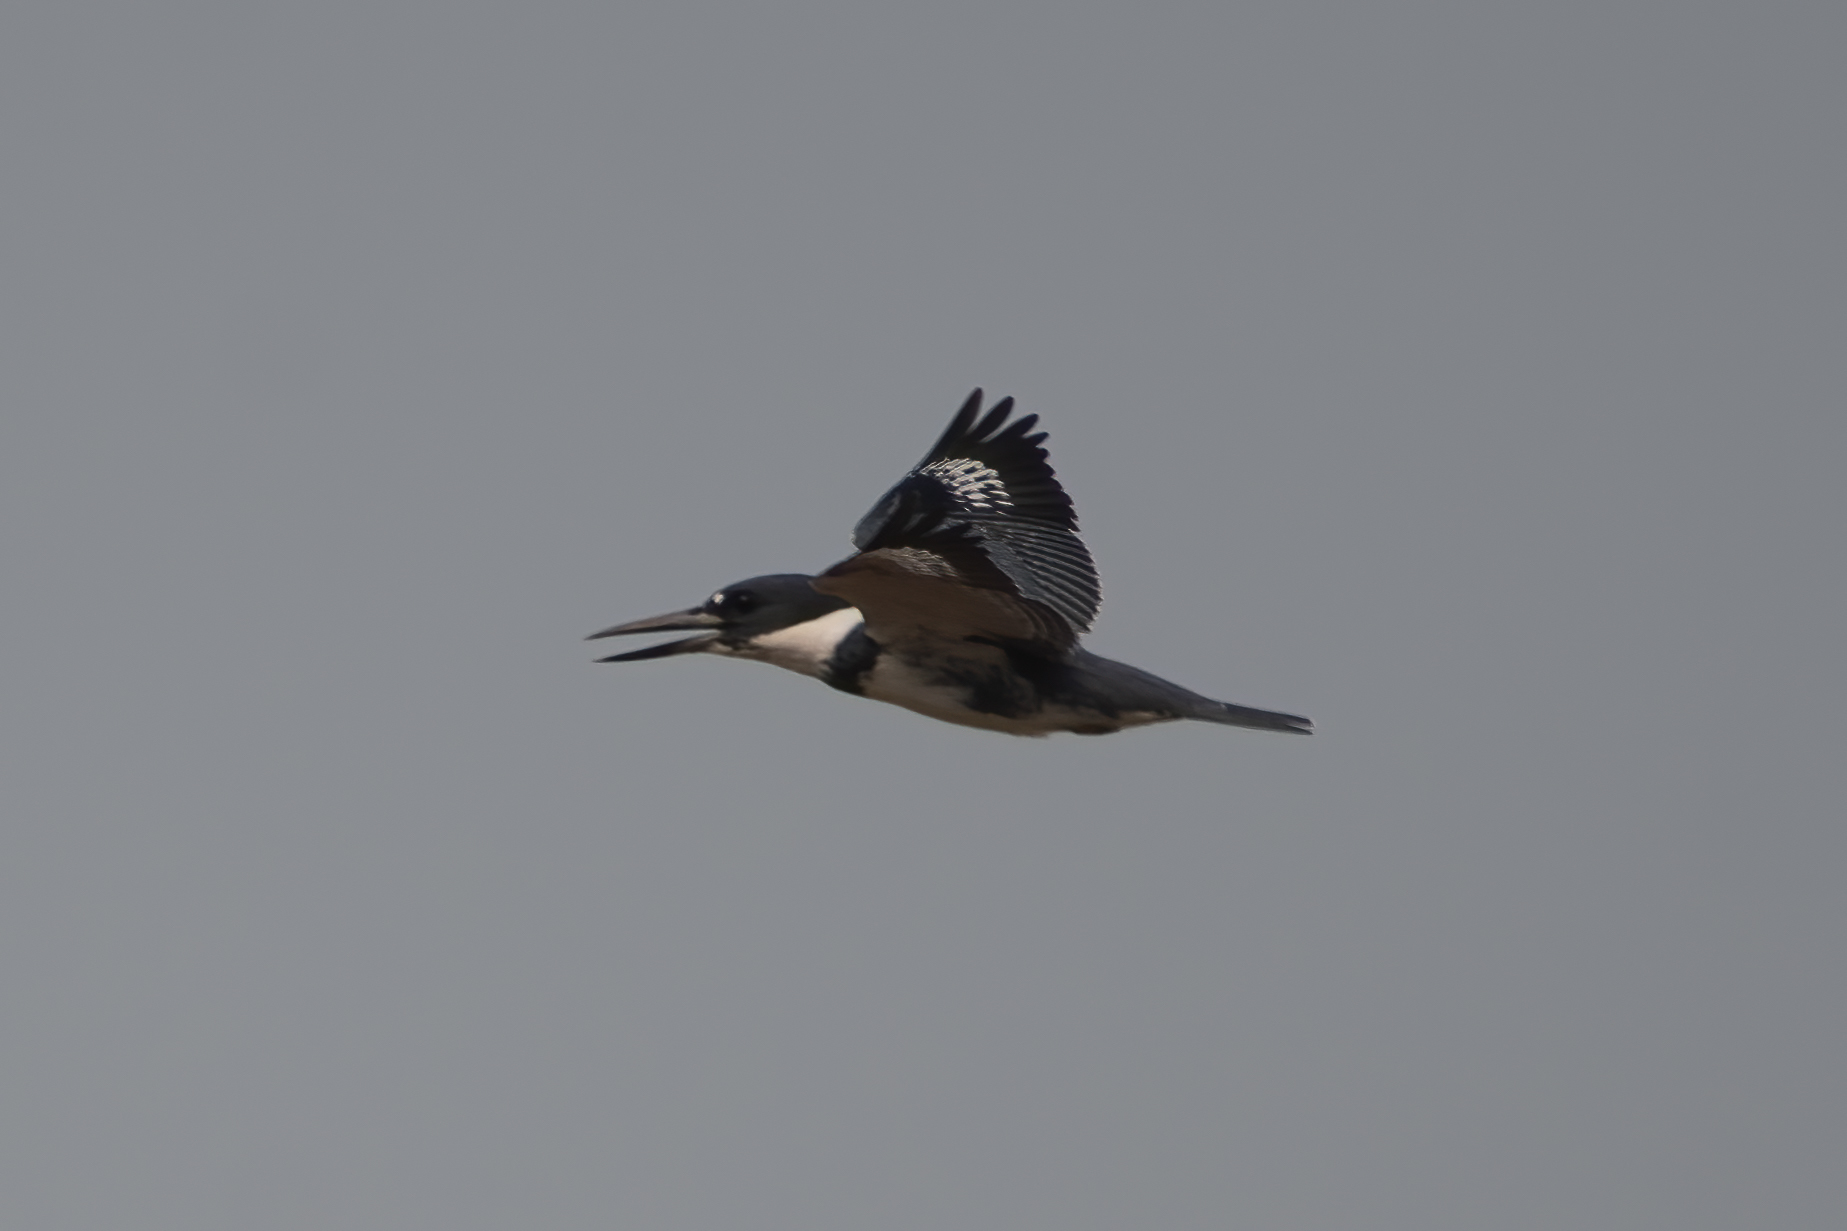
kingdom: Animalia
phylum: Chordata
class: Aves
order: Coraciiformes
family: Alcedinidae
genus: Megaceryle
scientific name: Megaceryle alcyon
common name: Belted kingfisher
